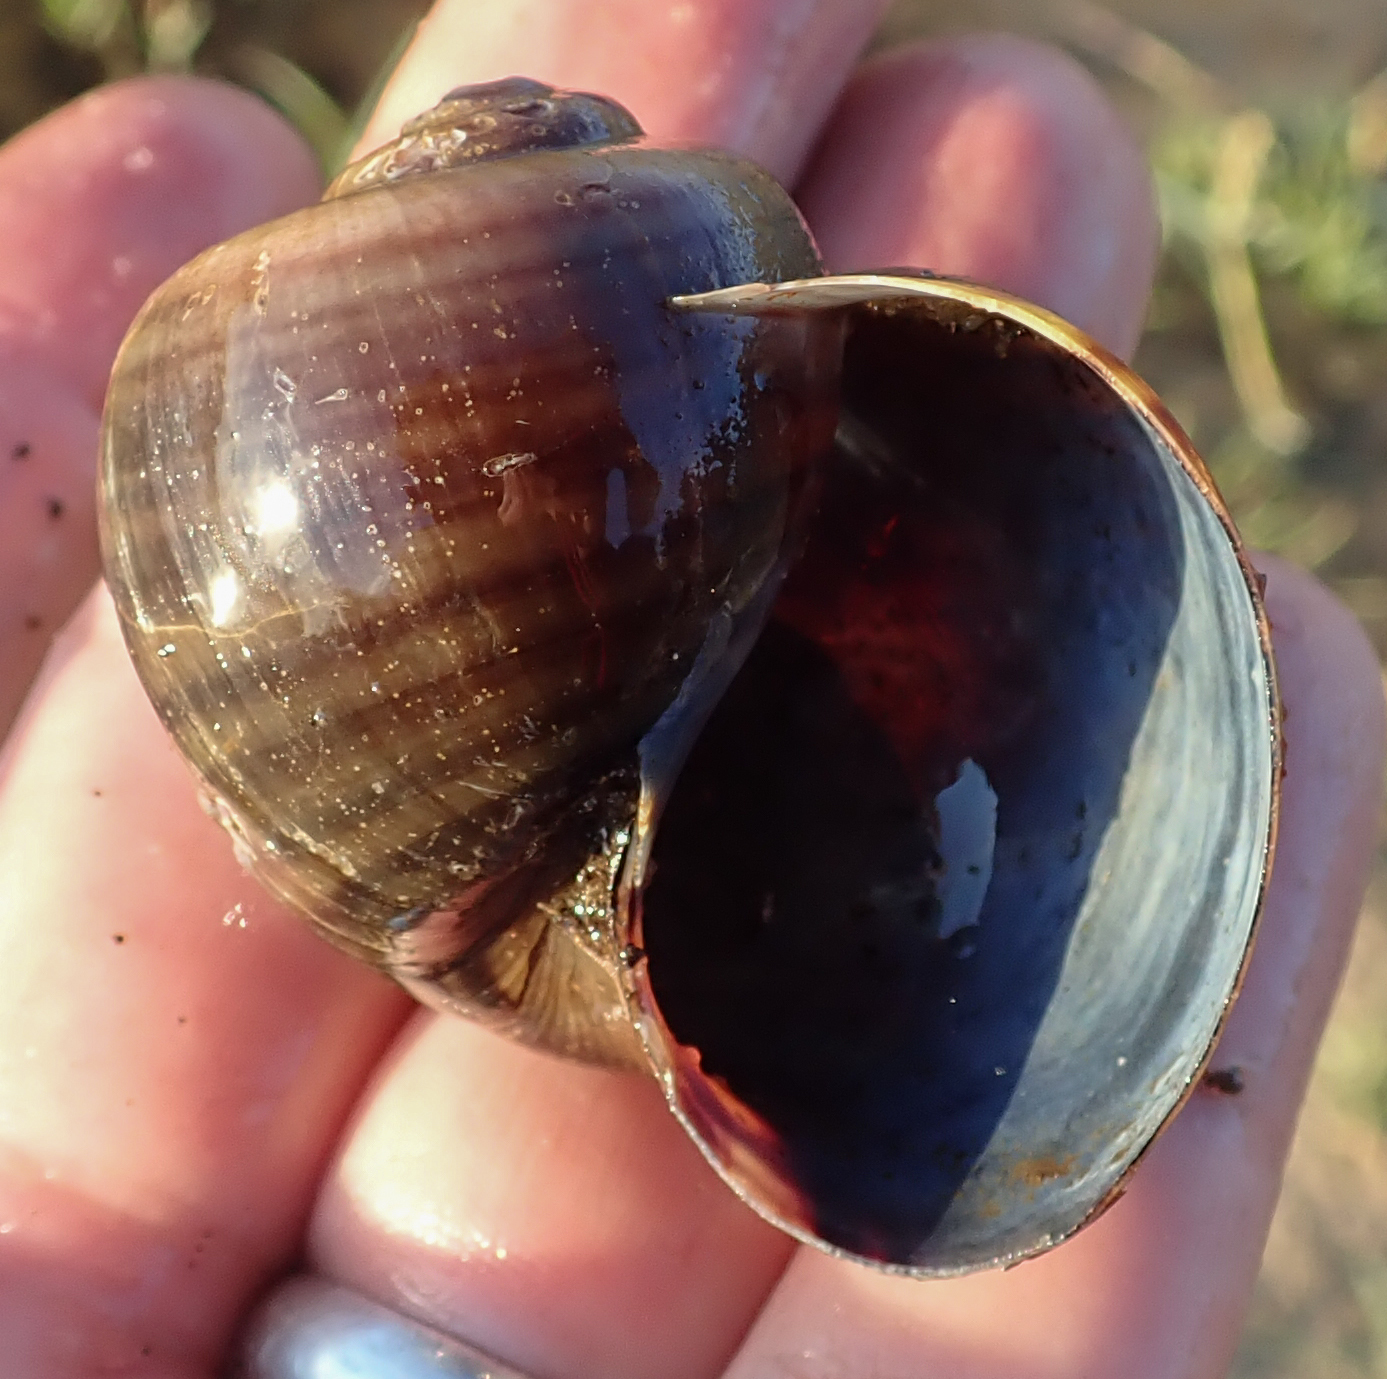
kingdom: Animalia
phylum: Mollusca
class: Gastropoda
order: Architaenioglossa
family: Ampullariidae
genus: Pila
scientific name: Pila occidentalis
